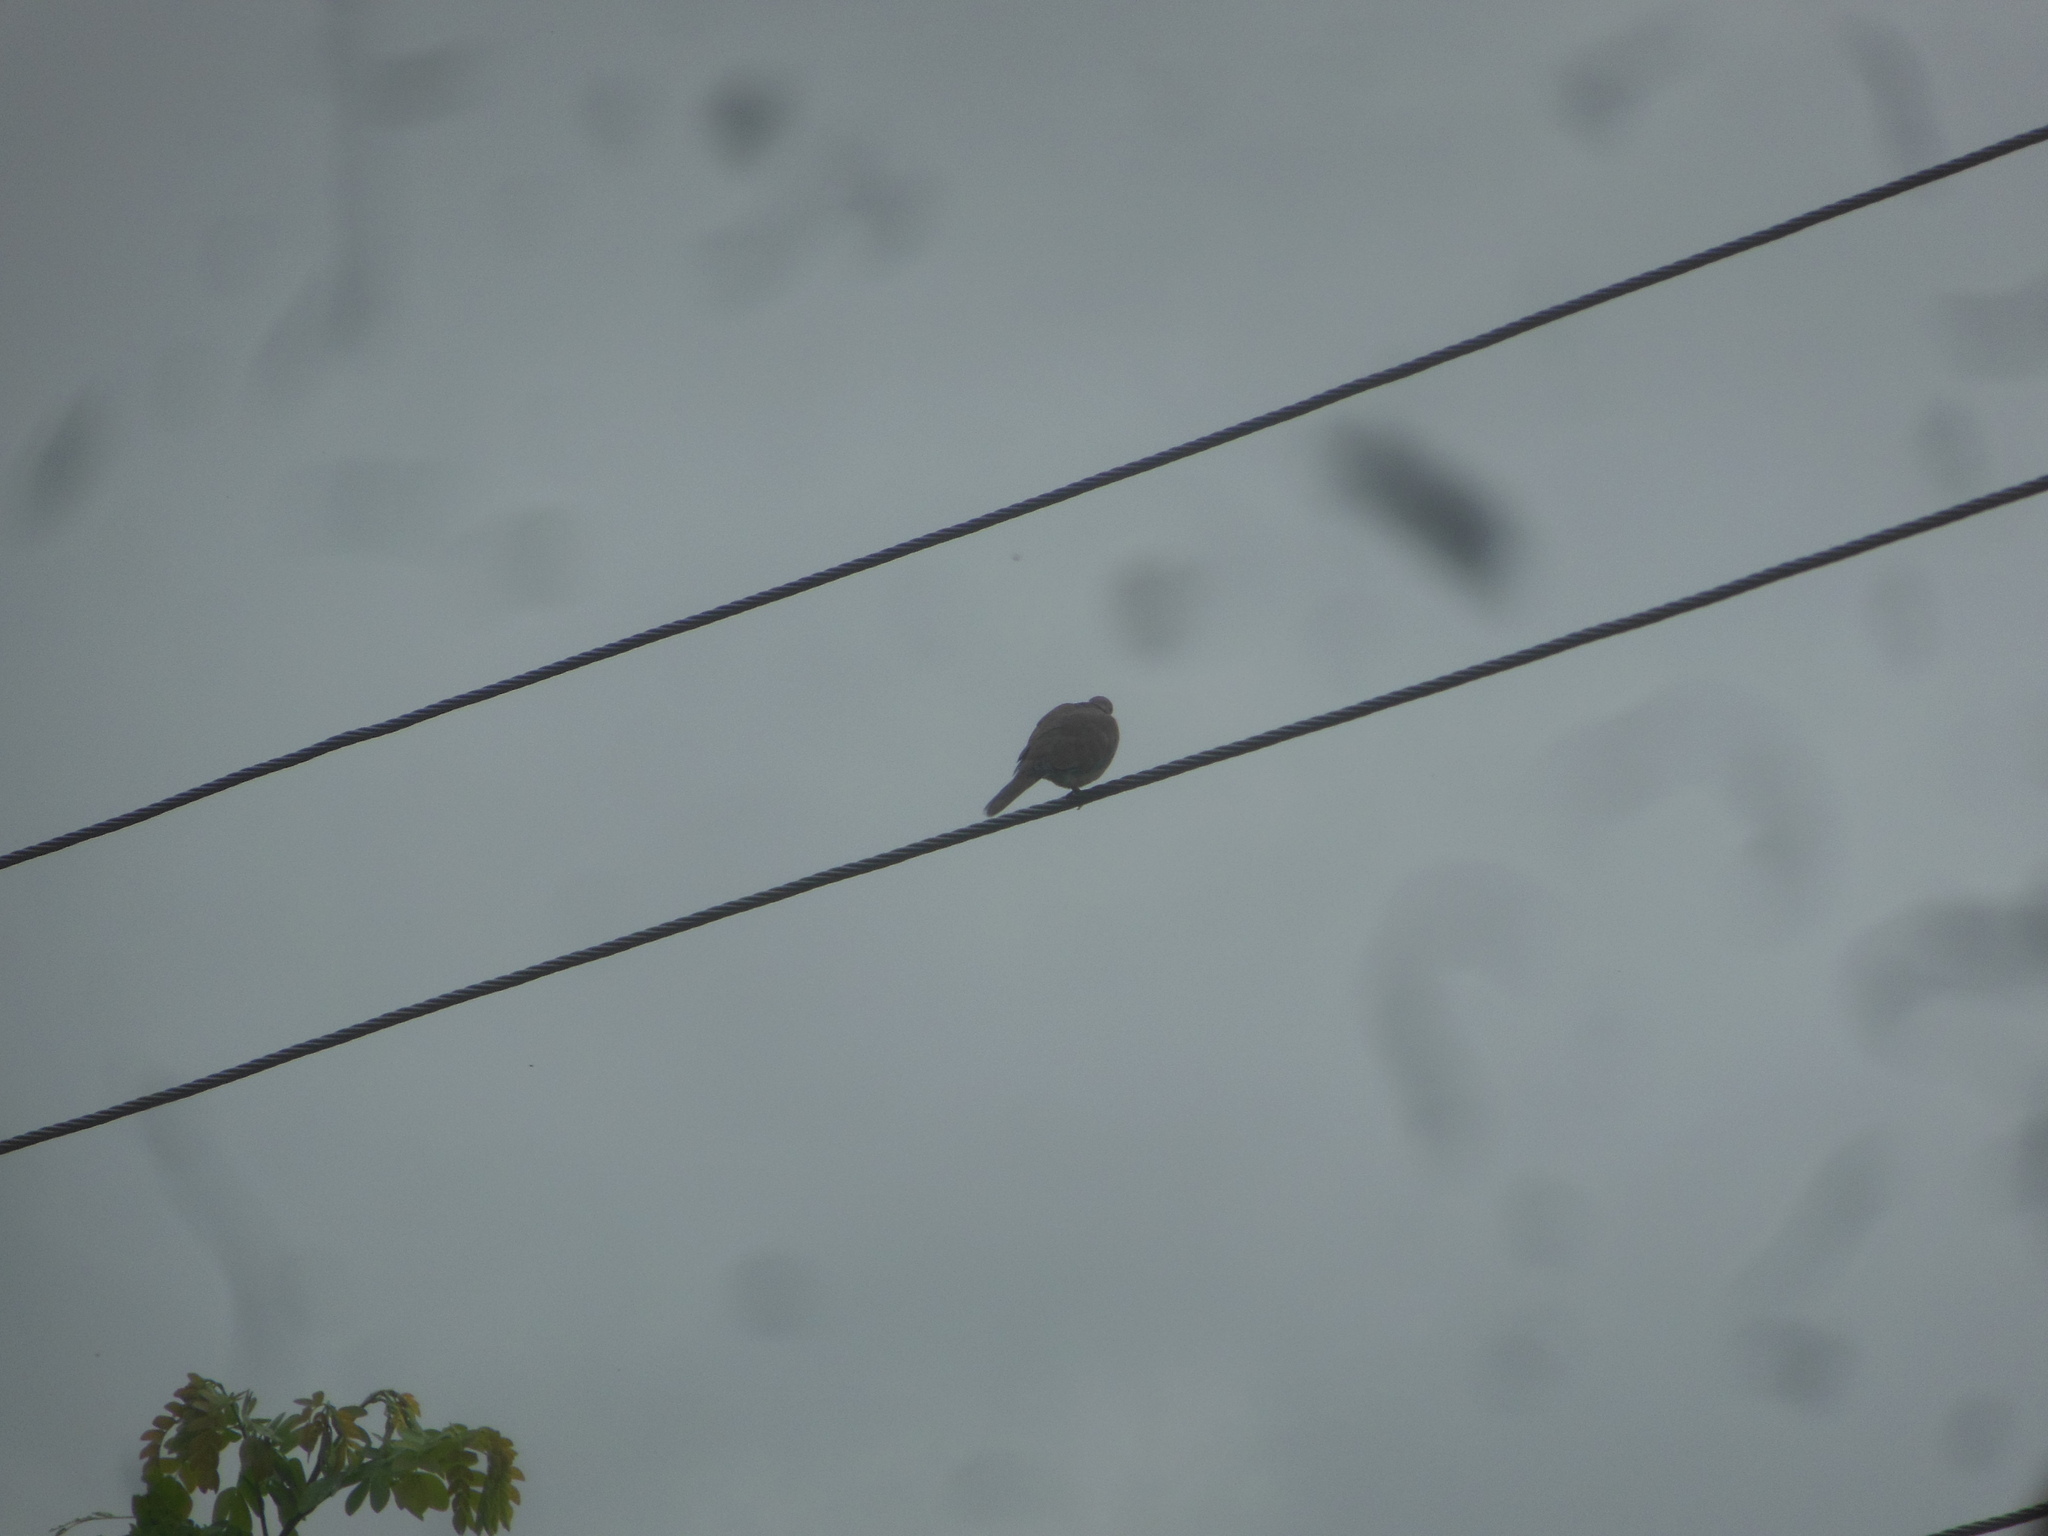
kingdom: Animalia
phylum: Chordata
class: Aves
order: Columbiformes
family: Columbidae
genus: Spilopelia
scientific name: Spilopelia senegalensis
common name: Laughing dove
